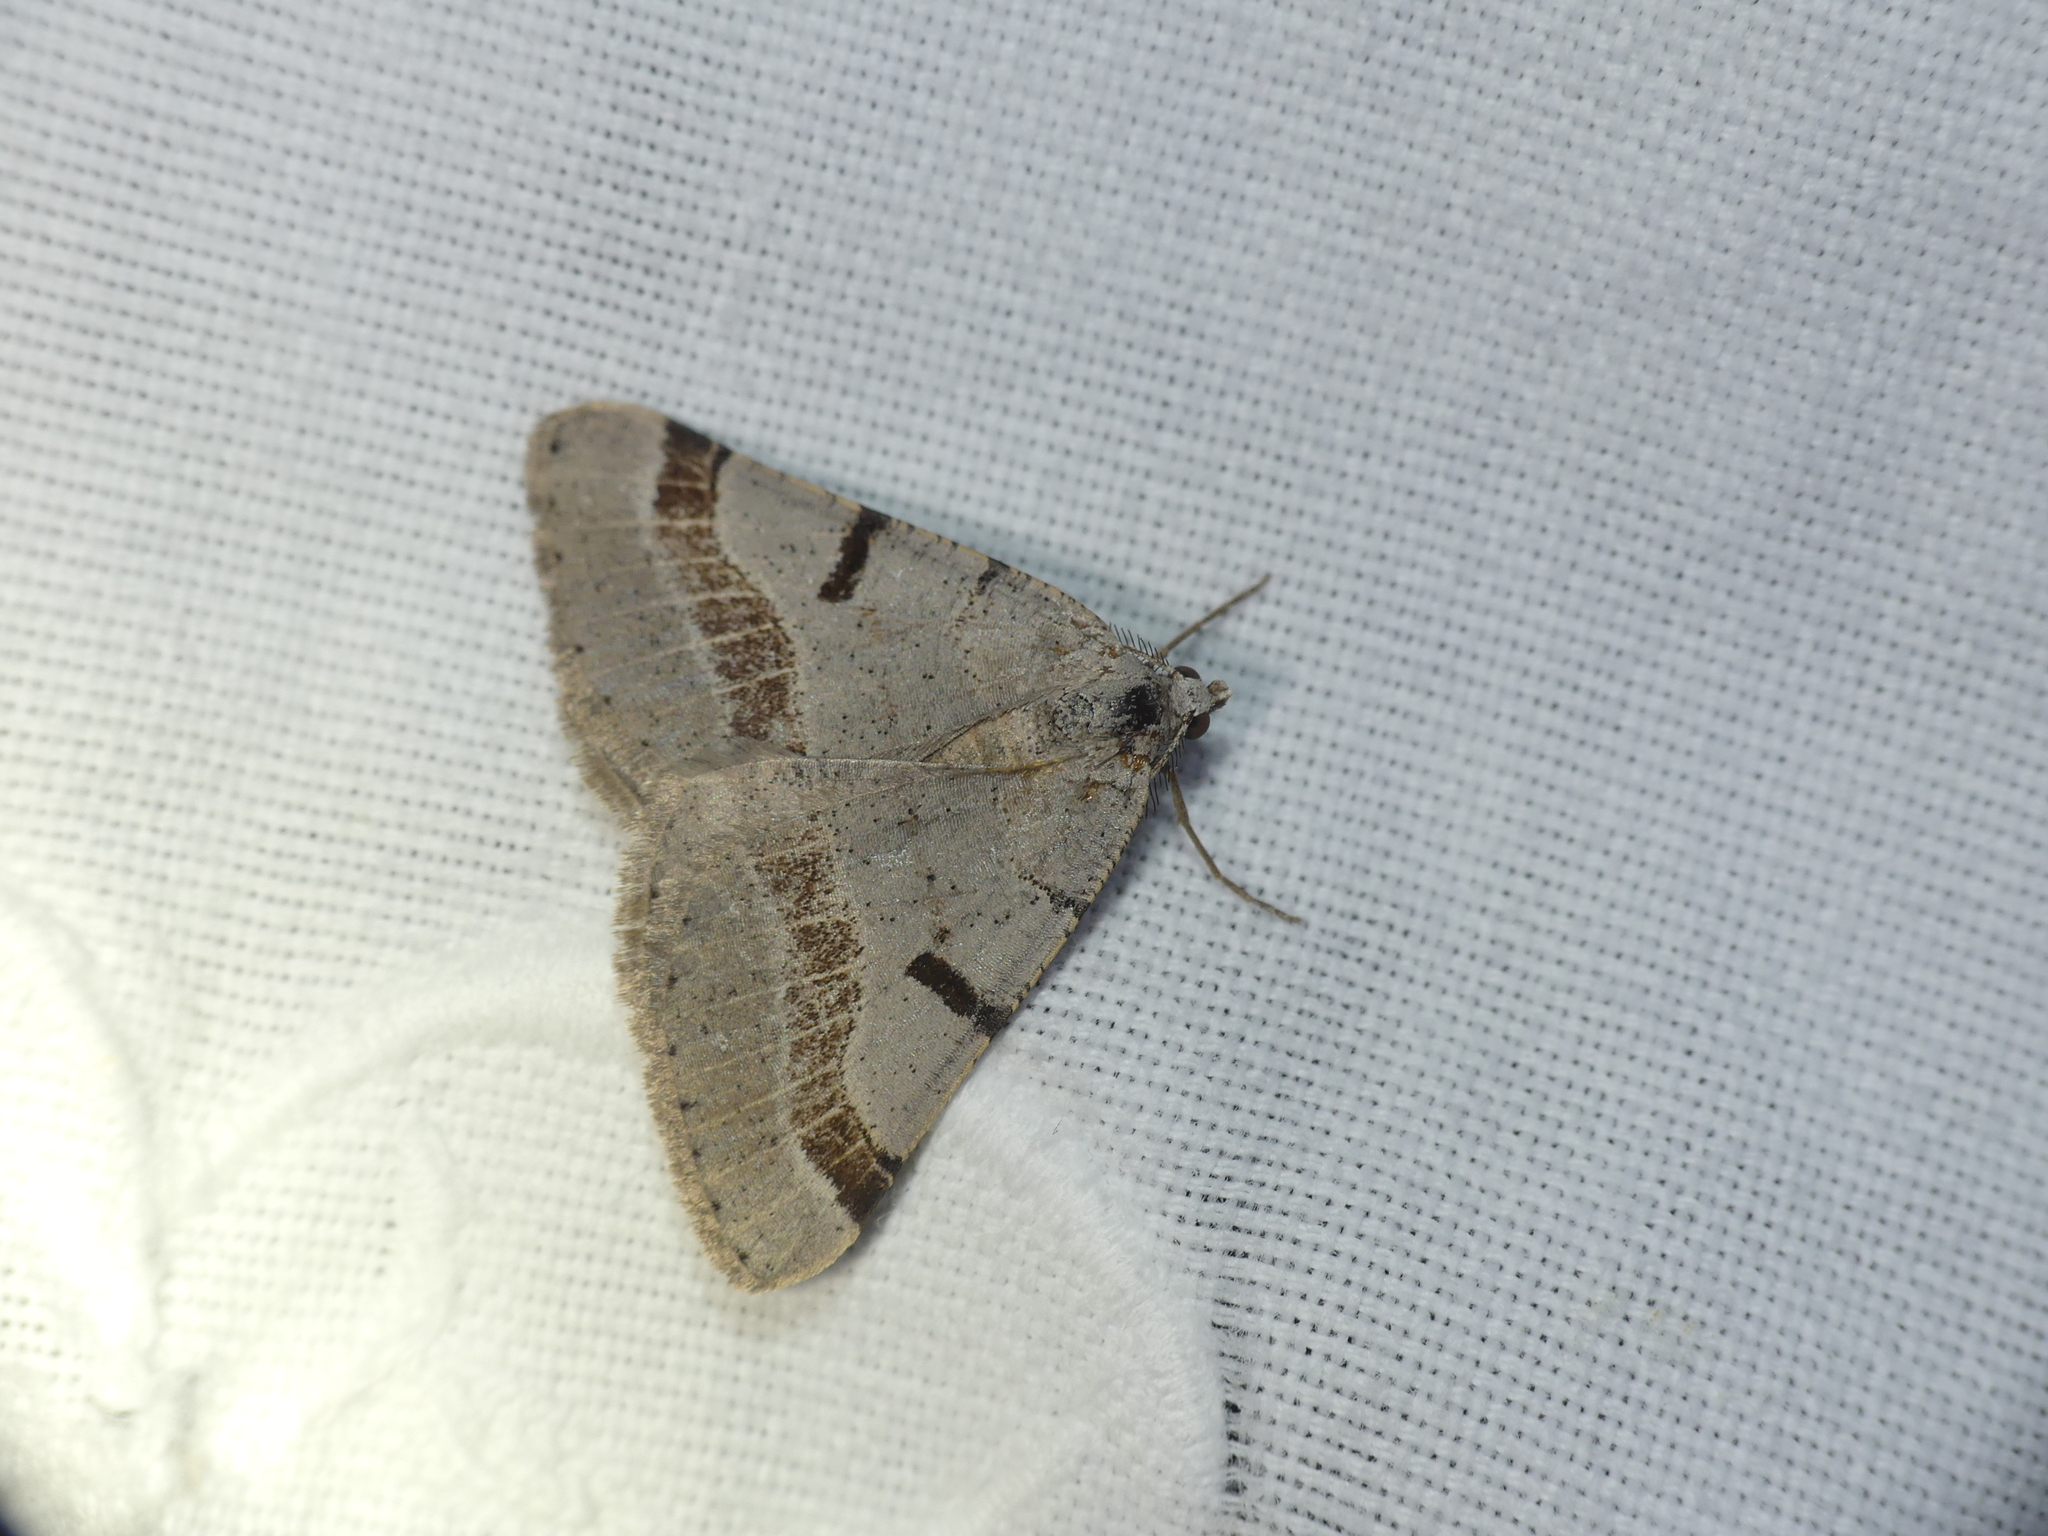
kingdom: Animalia
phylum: Arthropoda
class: Insecta
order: Lepidoptera
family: Geometridae
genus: Itame
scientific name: Itame vincularia
